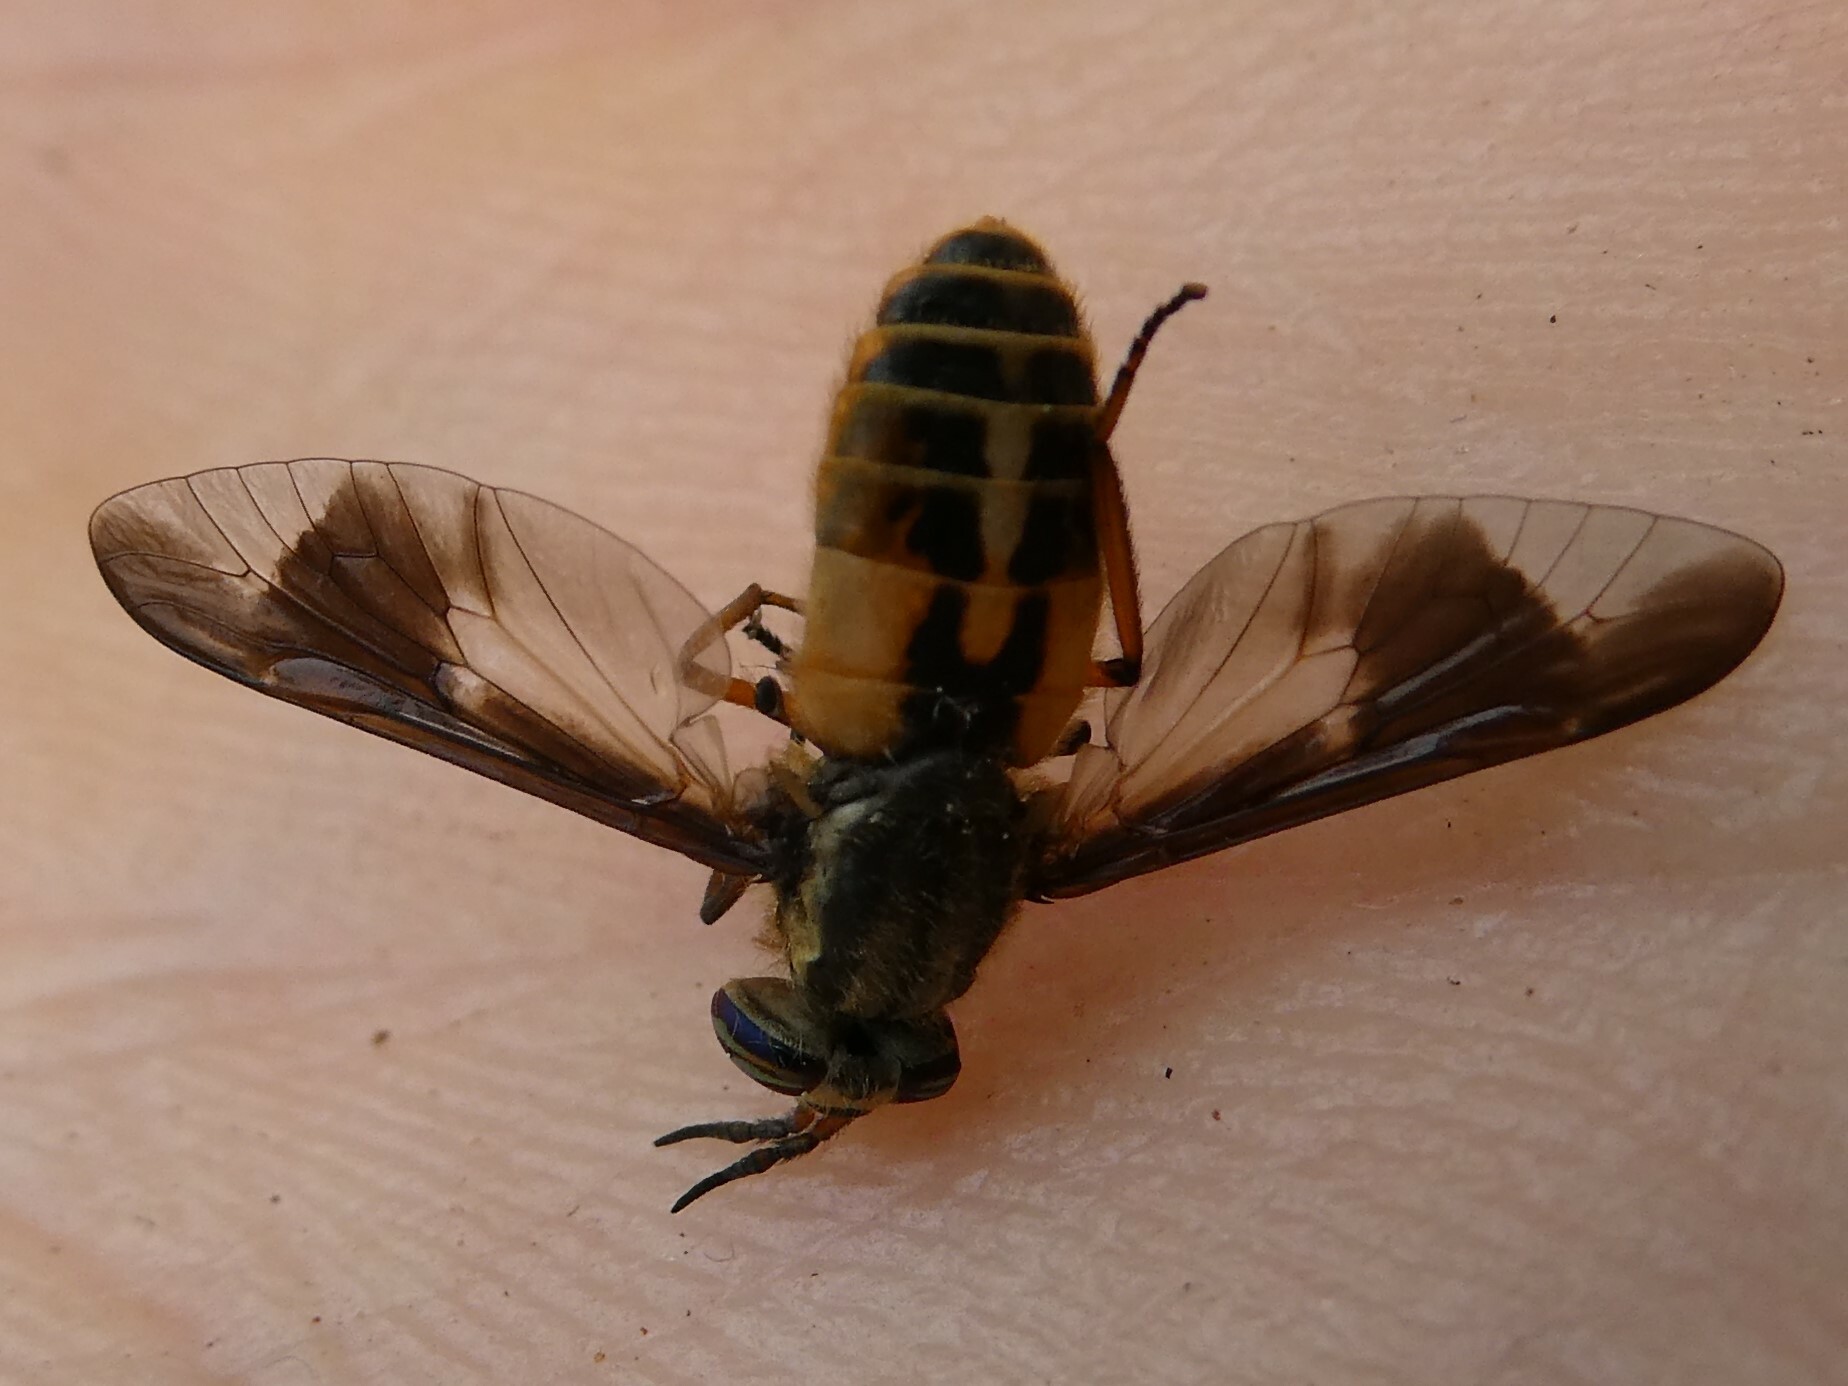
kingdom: Animalia
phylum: Arthropoda
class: Insecta
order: Diptera
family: Tabanidae
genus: Chrysops
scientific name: Chrysops indus
